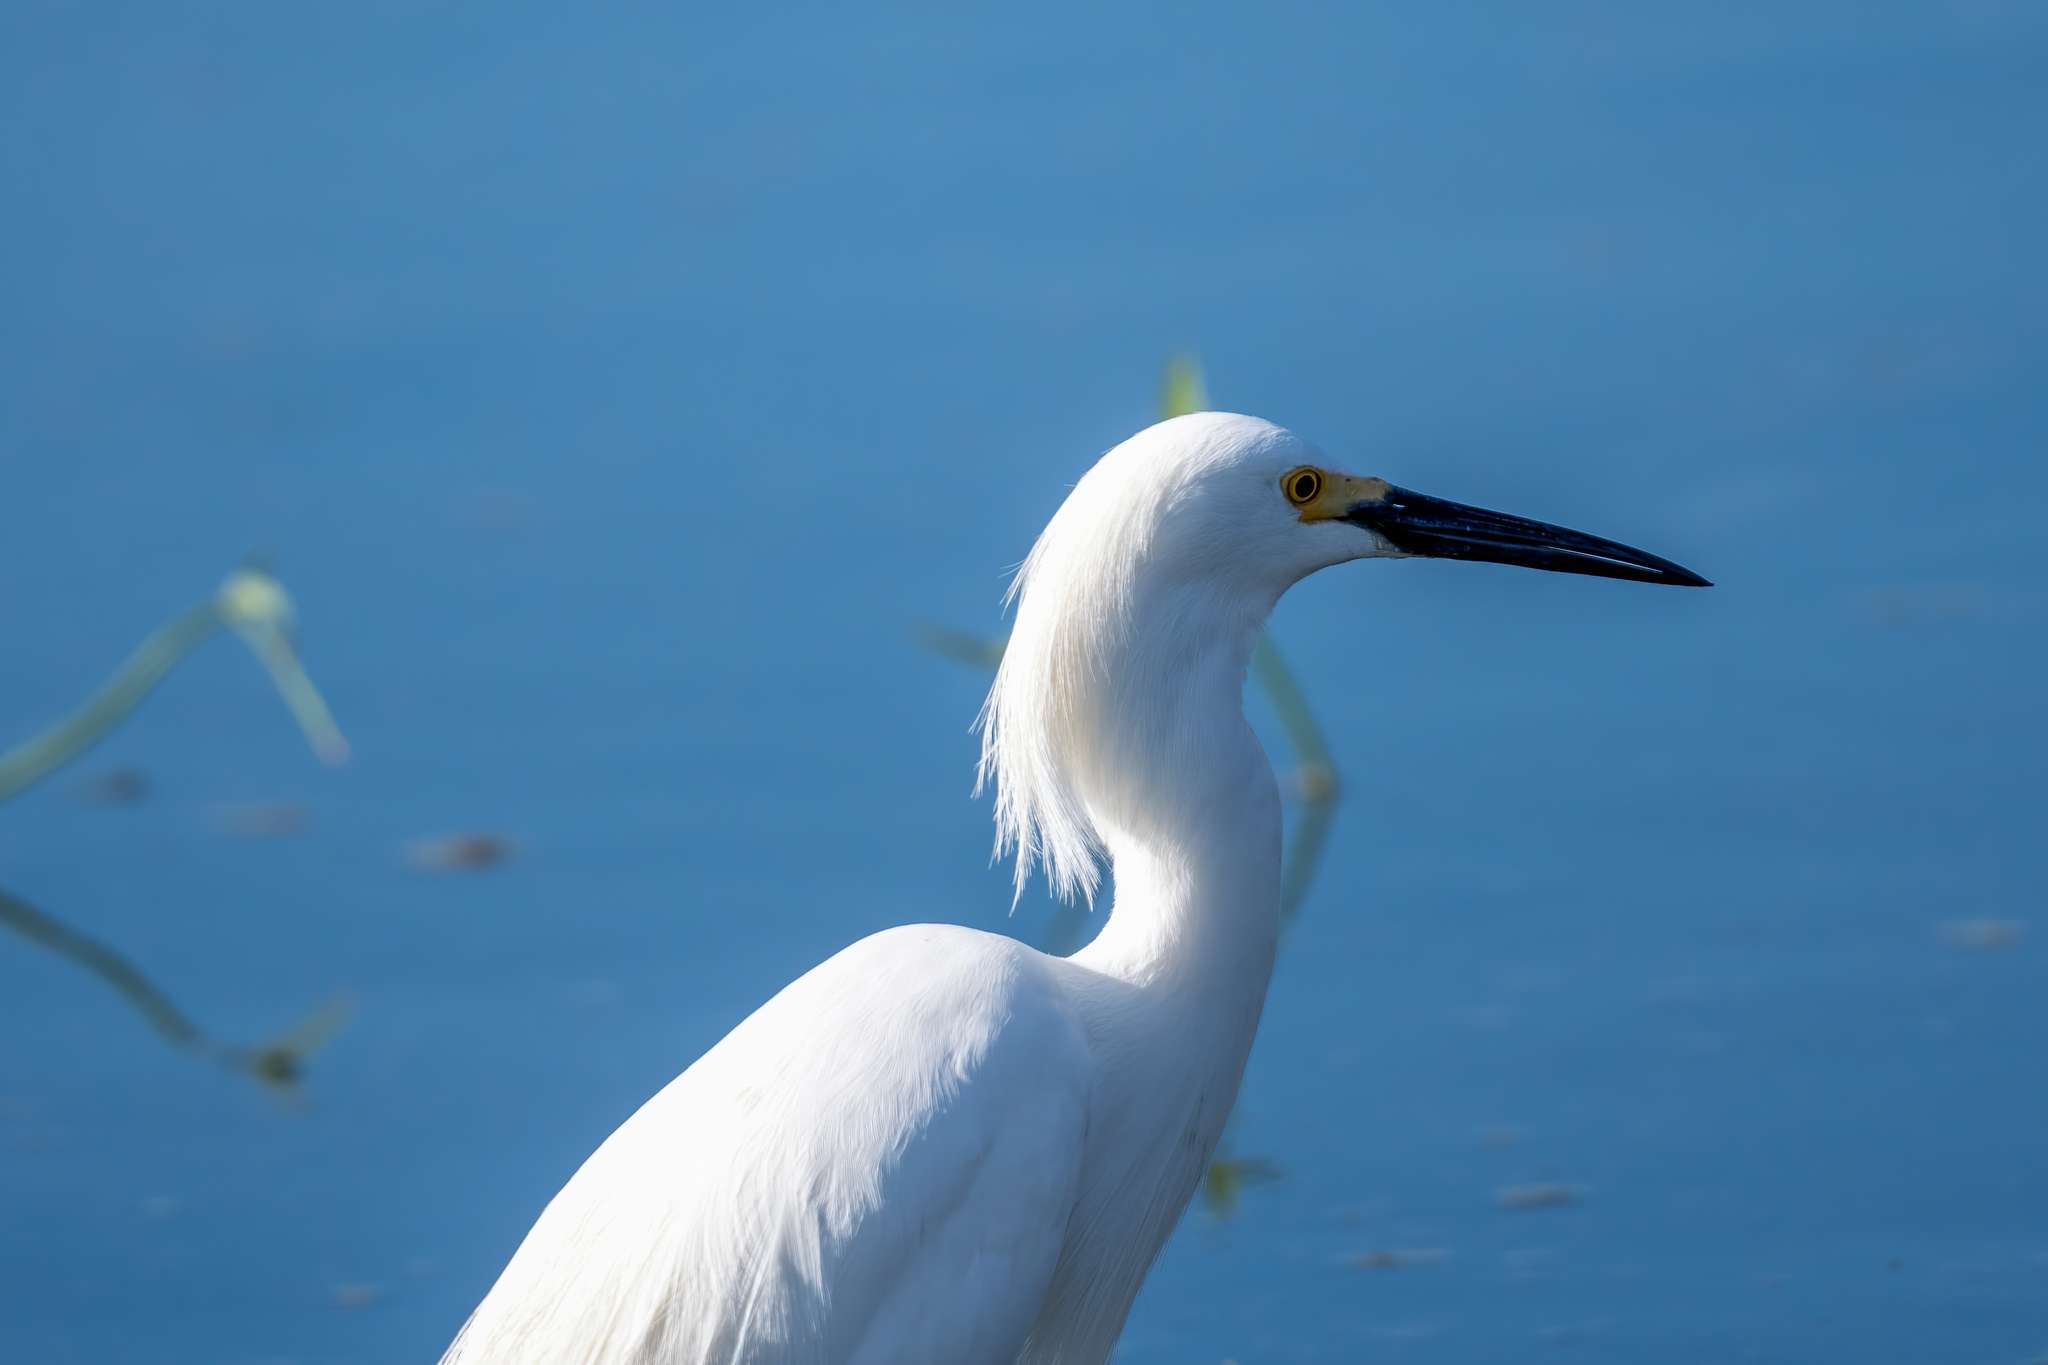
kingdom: Animalia
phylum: Chordata
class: Aves
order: Pelecaniformes
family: Ardeidae
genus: Egretta
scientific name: Egretta thula
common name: Snowy egret
